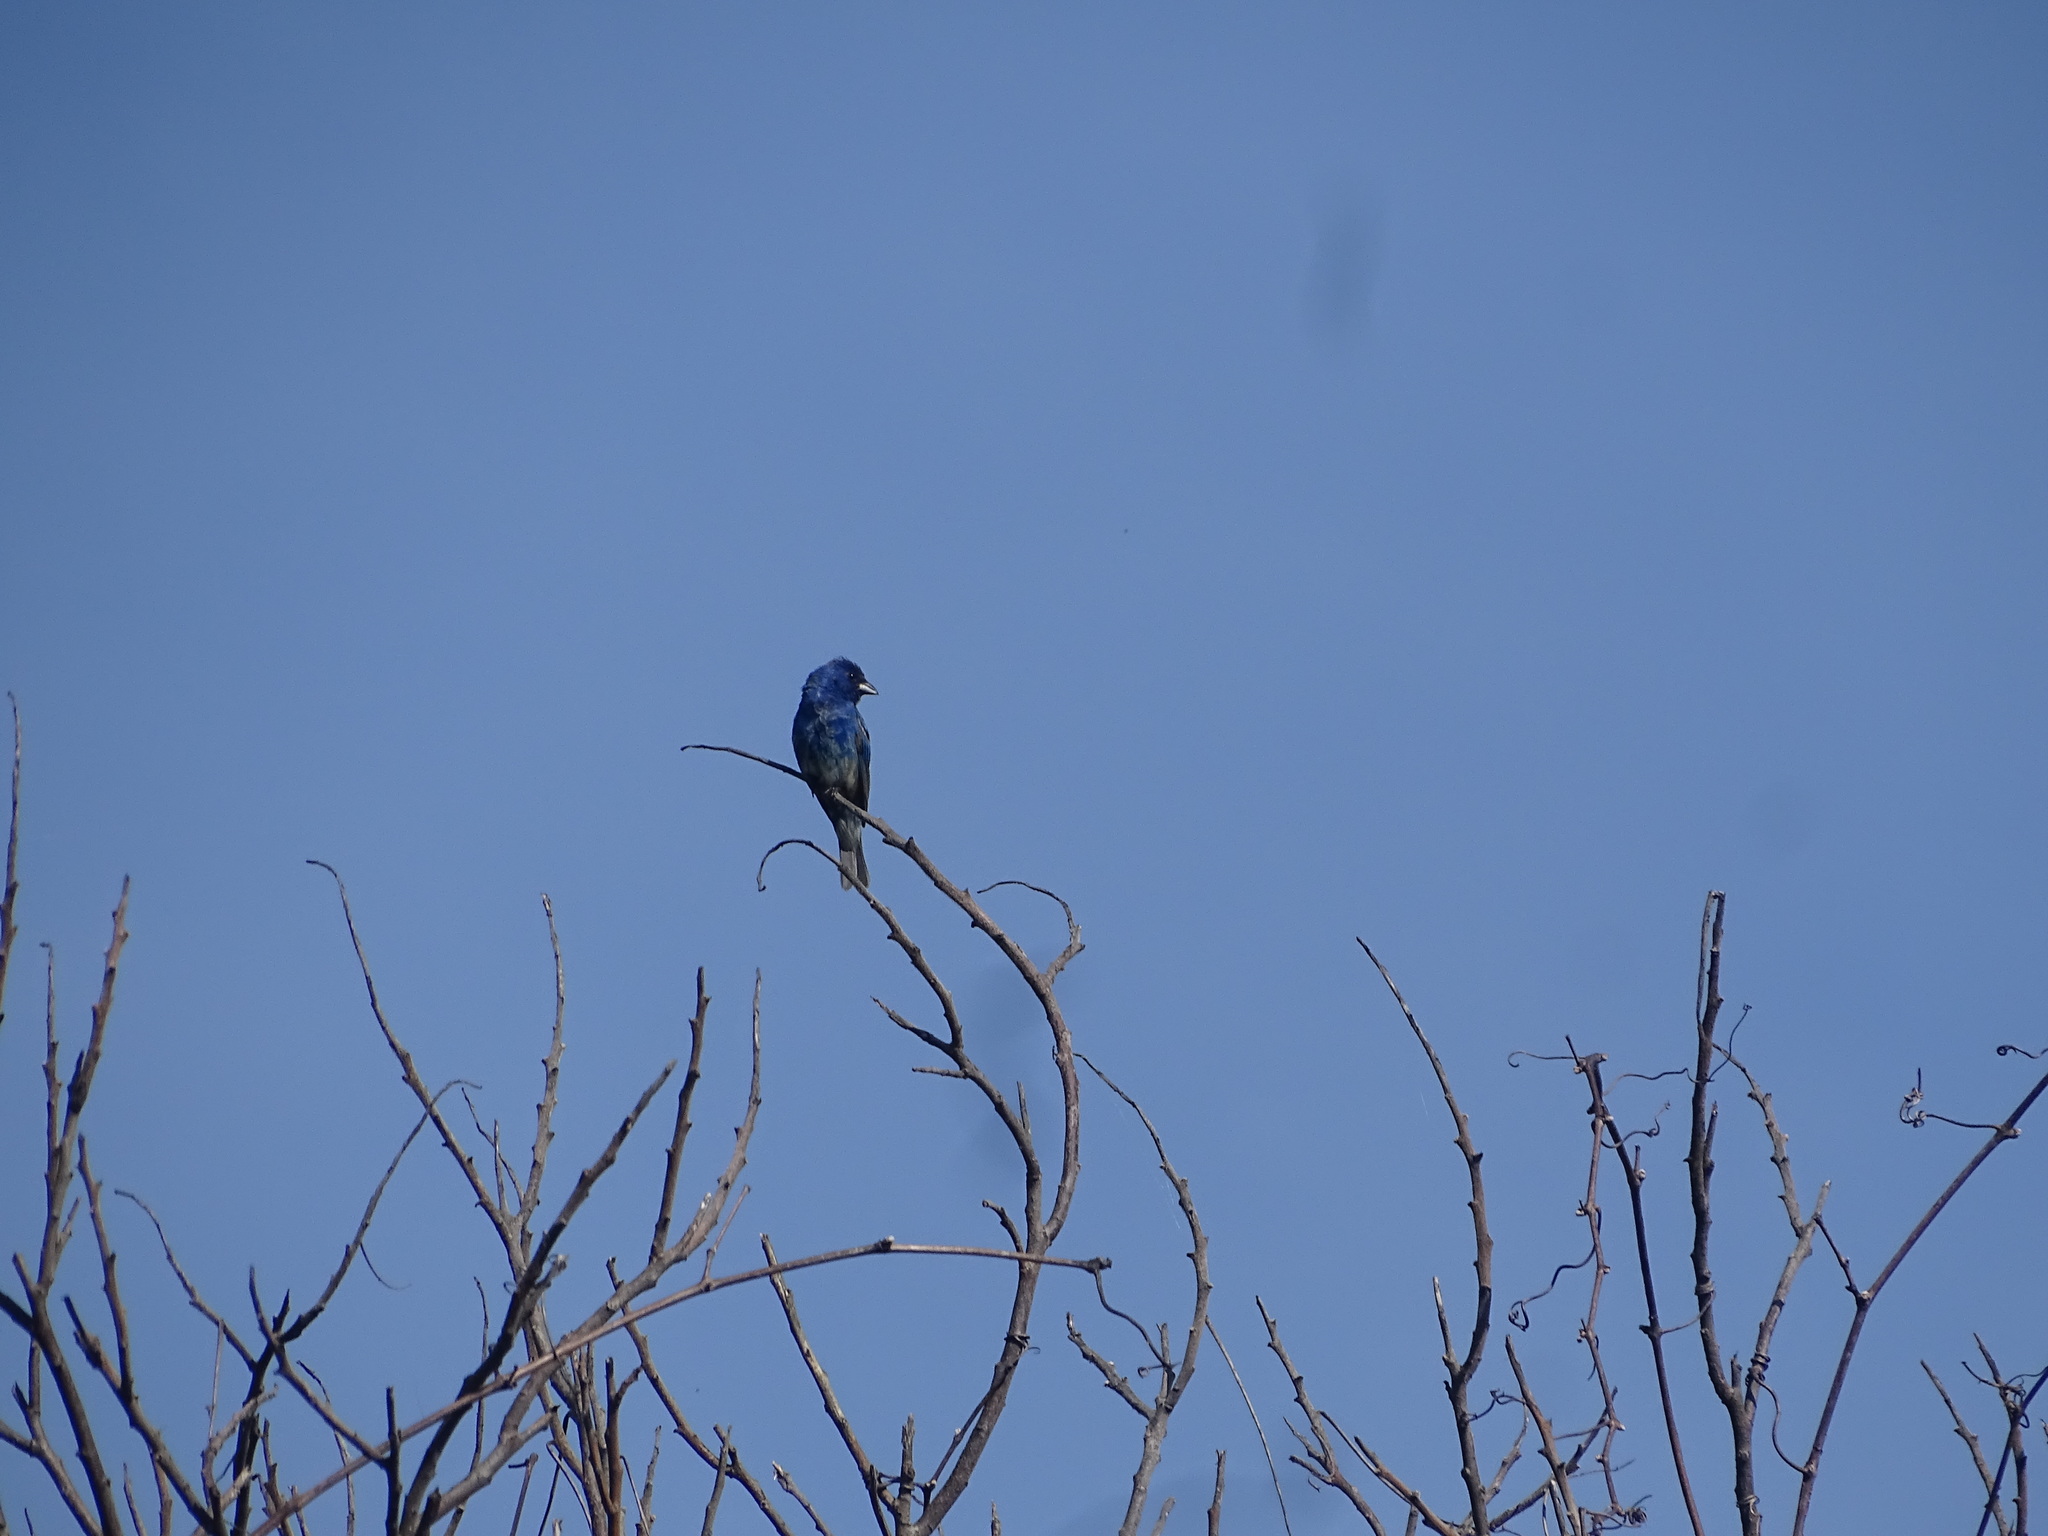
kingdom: Animalia
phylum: Chordata
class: Aves
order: Passeriformes
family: Cardinalidae
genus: Passerina
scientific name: Passerina cyanea
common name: Indigo bunting
